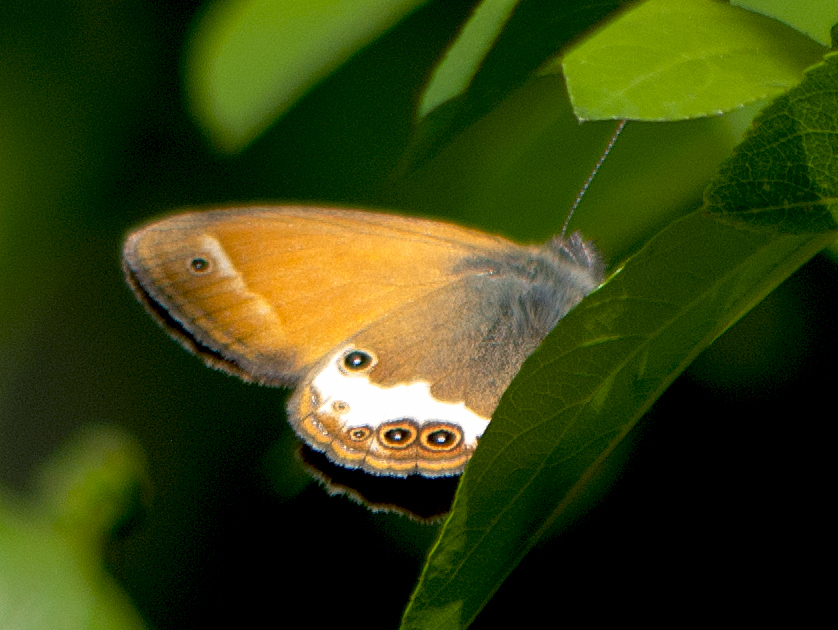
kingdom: Animalia
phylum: Arthropoda
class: Insecta
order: Lepidoptera
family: Nymphalidae
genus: Coenonympha
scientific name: Coenonympha arcania
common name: Pearly heath
